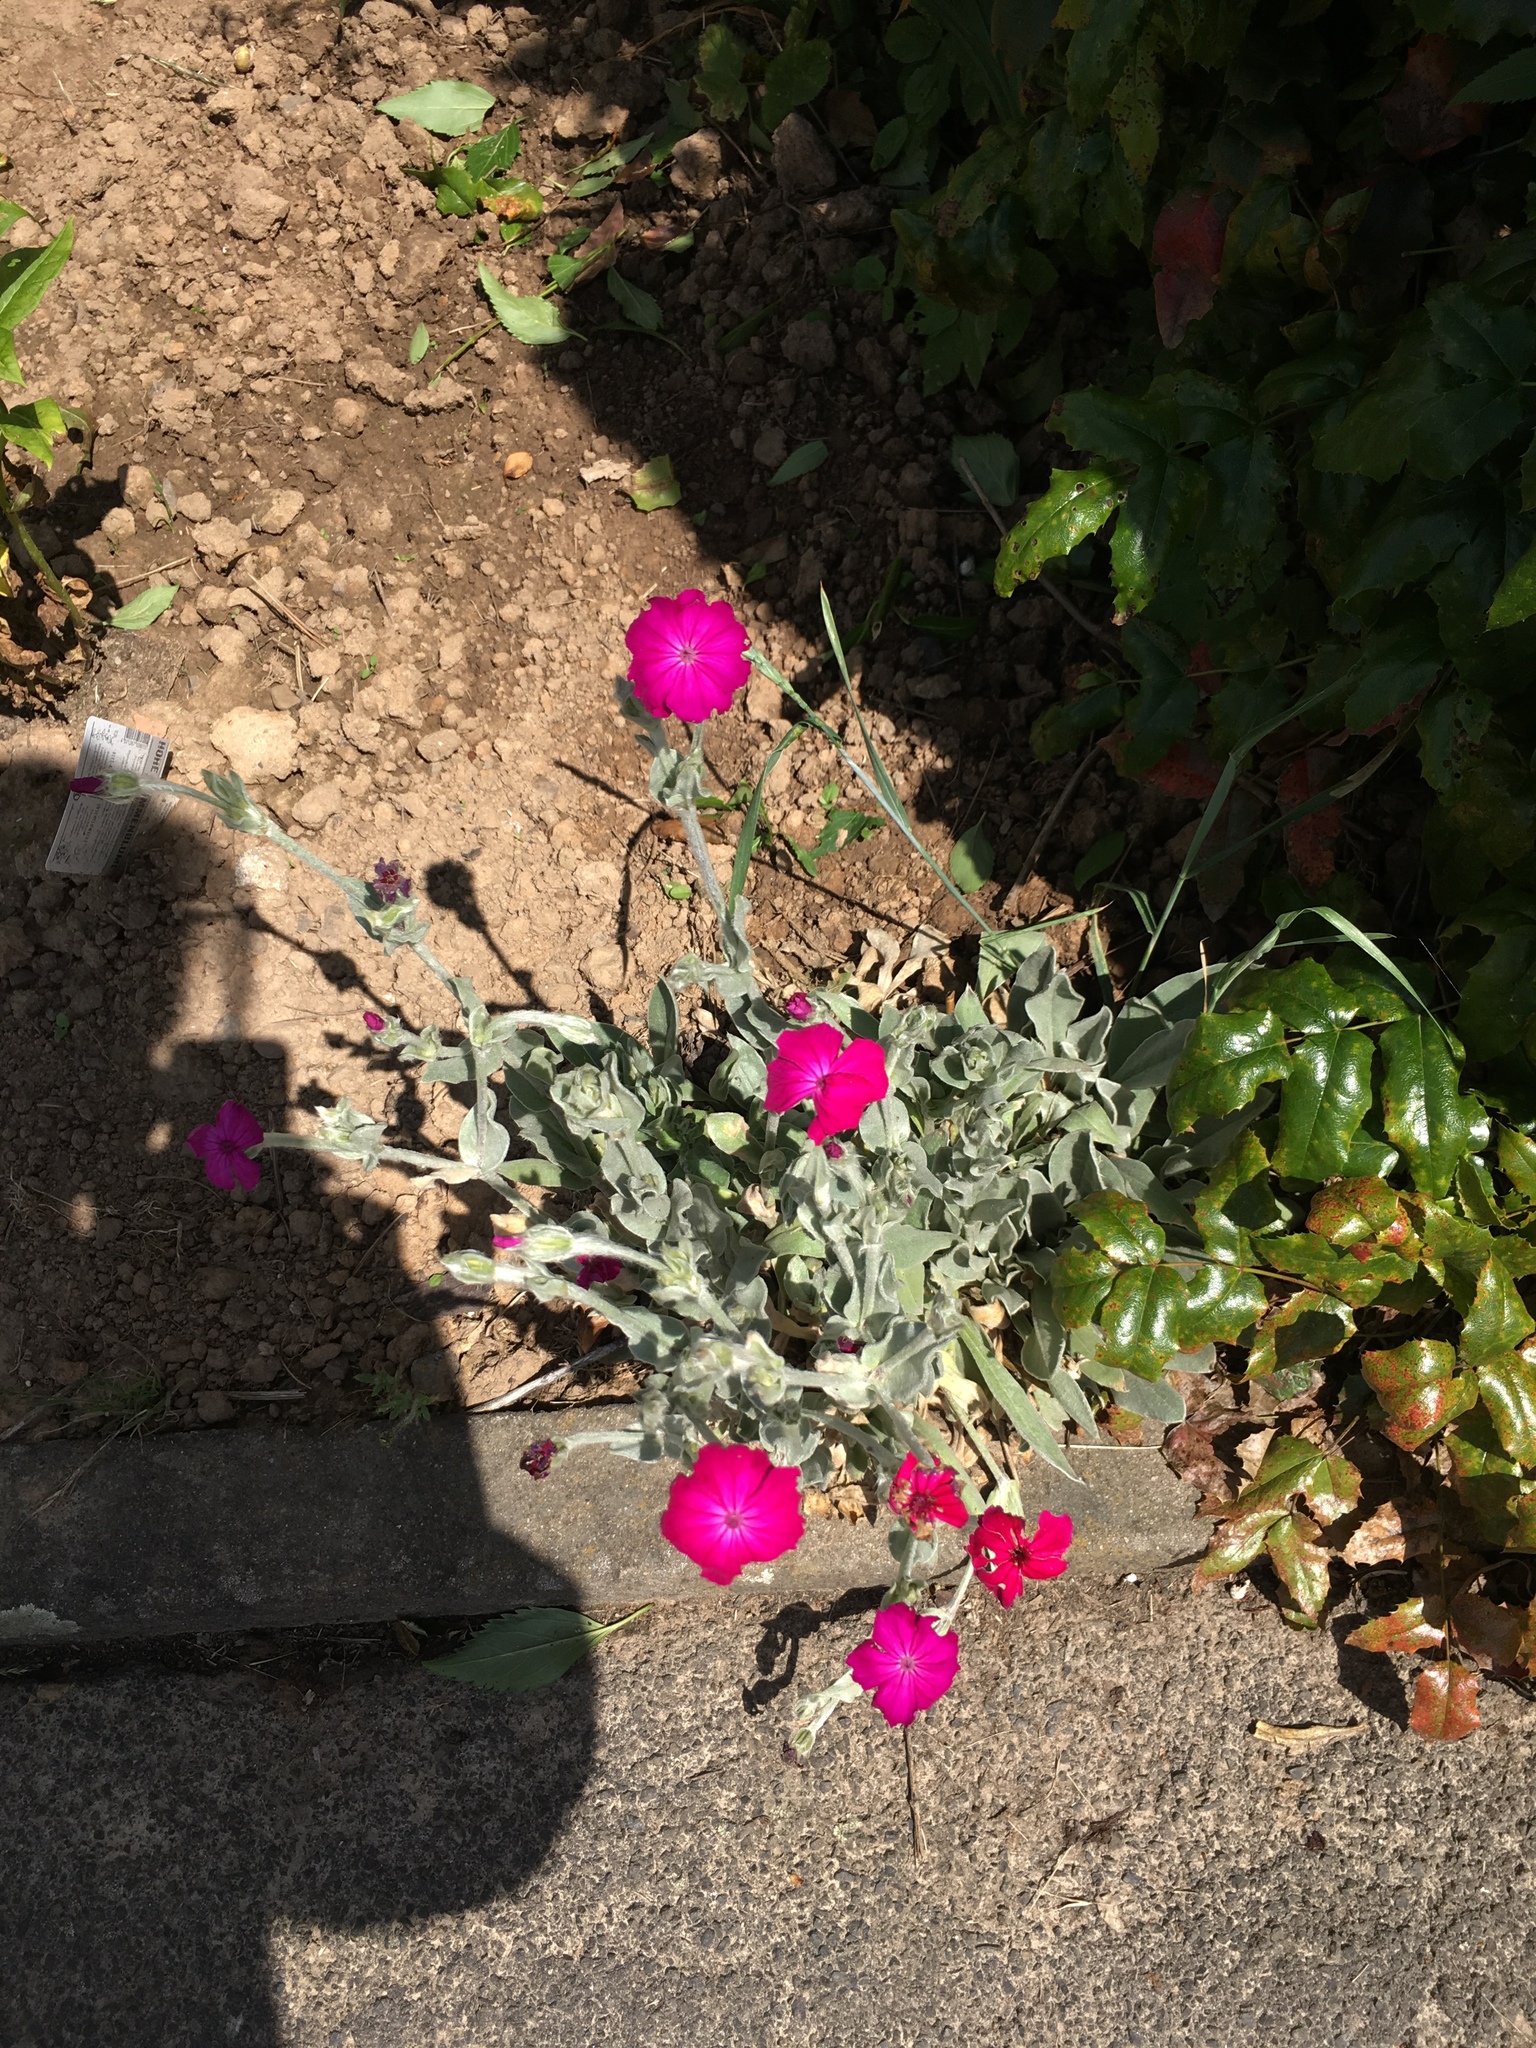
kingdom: Plantae
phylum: Tracheophyta
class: Magnoliopsida
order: Caryophyllales
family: Caryophyllaceae
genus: Silene
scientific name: Silene coronaria
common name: Rose campion
